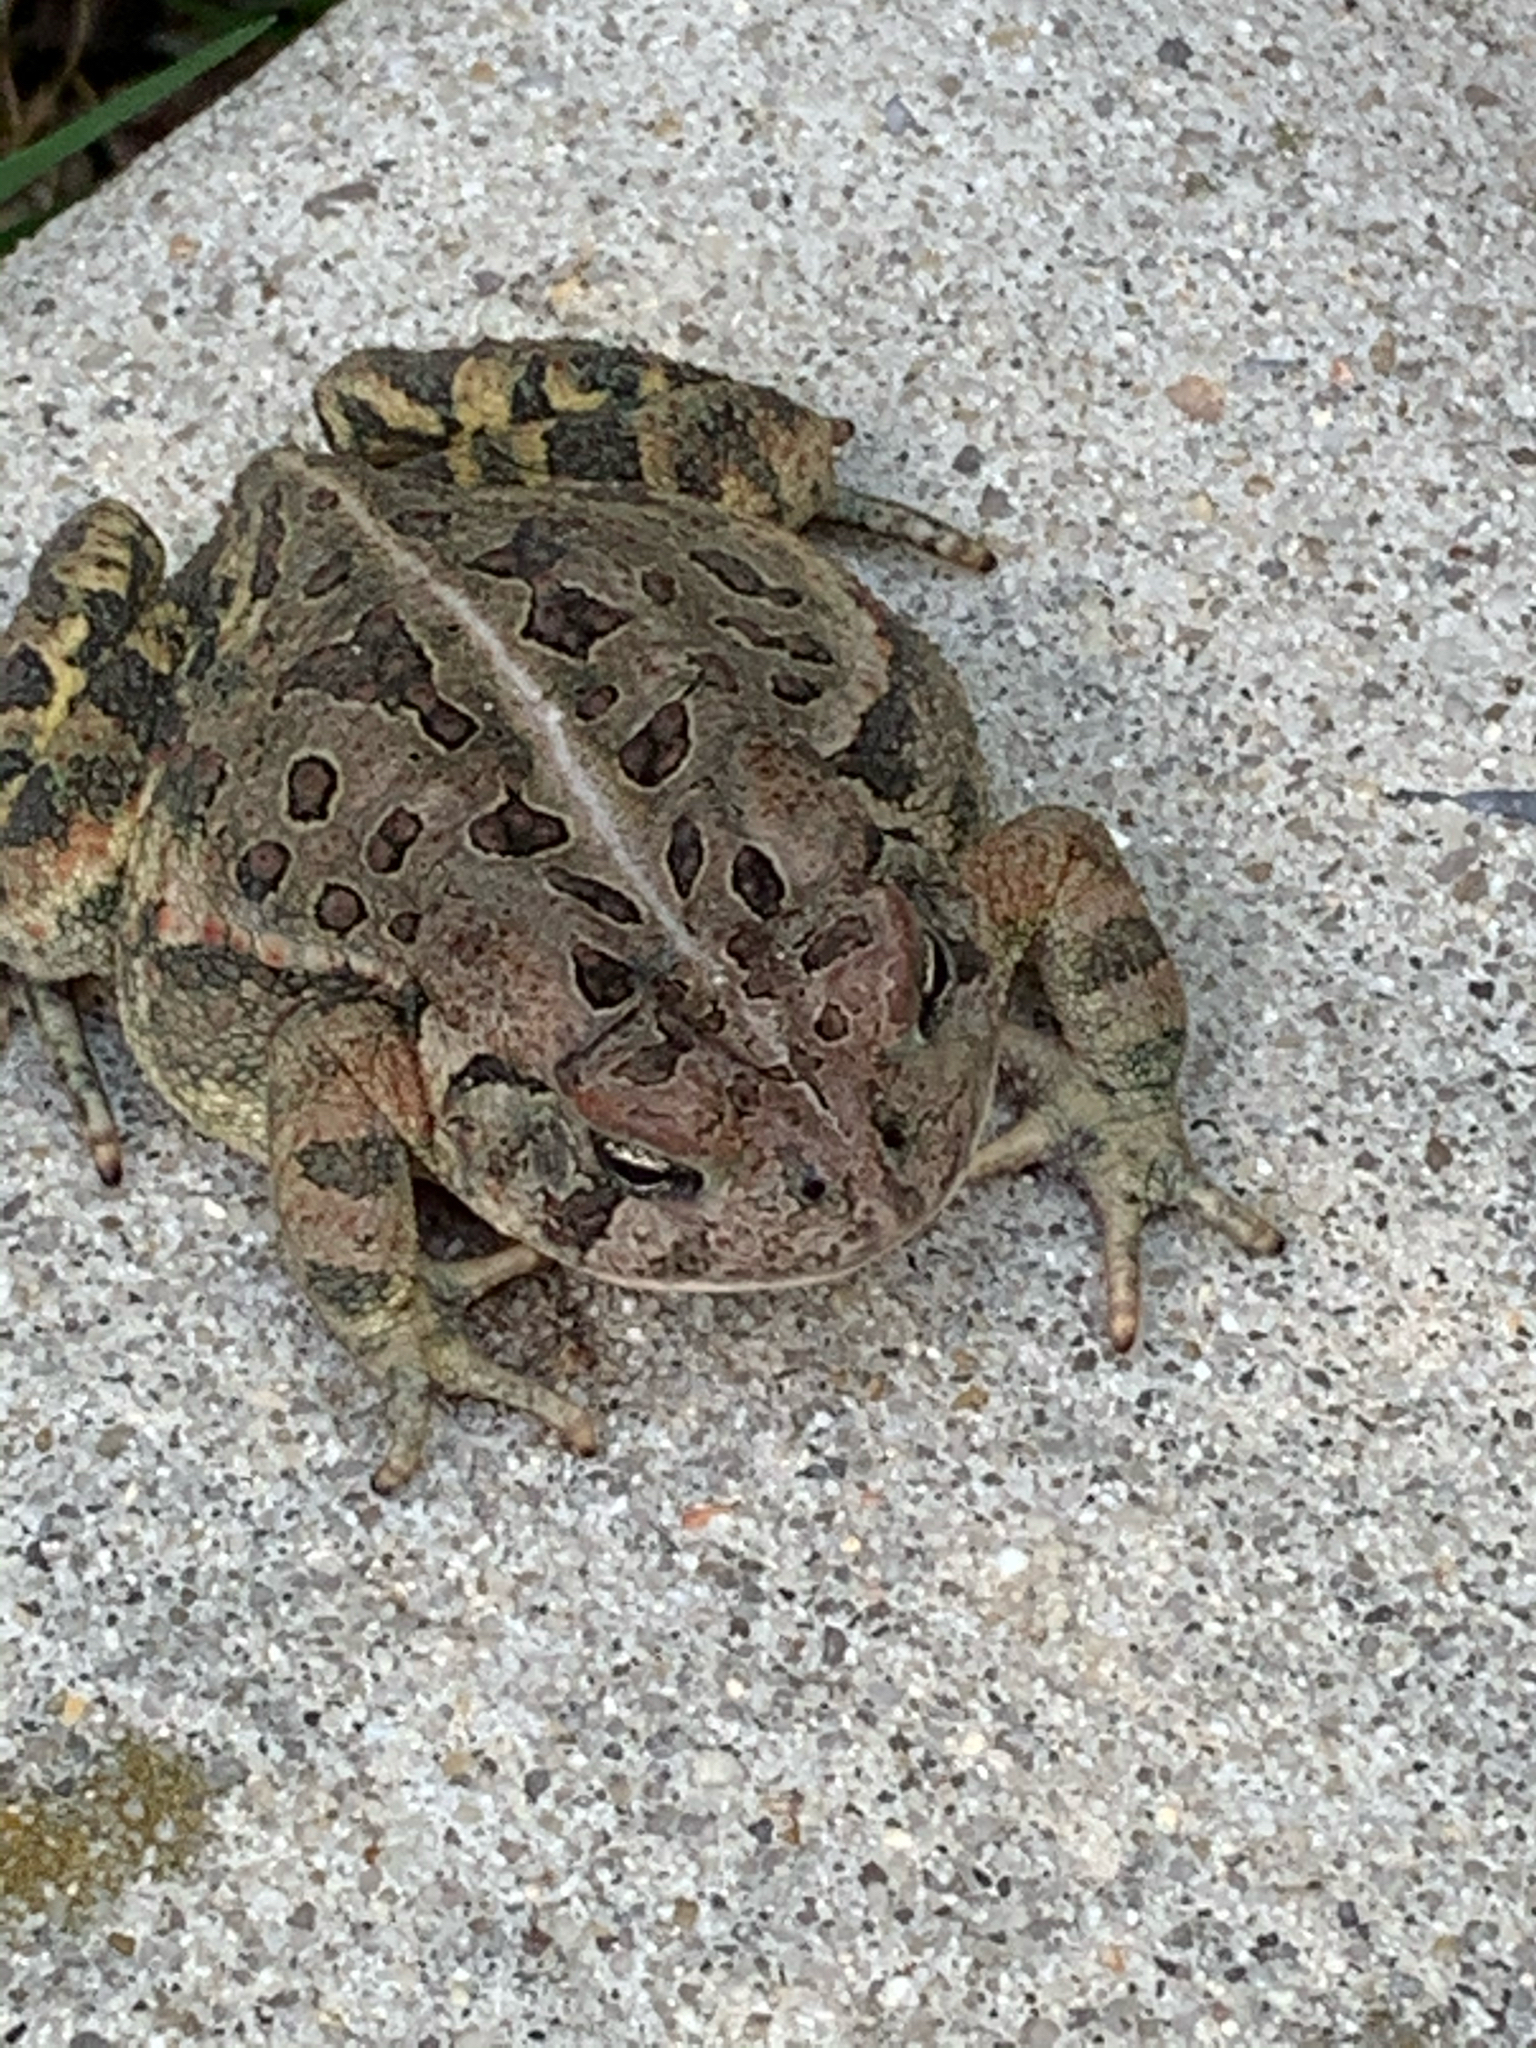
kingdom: Animalia
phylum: Chordata
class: Amphibia
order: Anura
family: Bufonidae
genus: Anaxyrus
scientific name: Anaxyrus fowleri
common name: Fowler's toad
